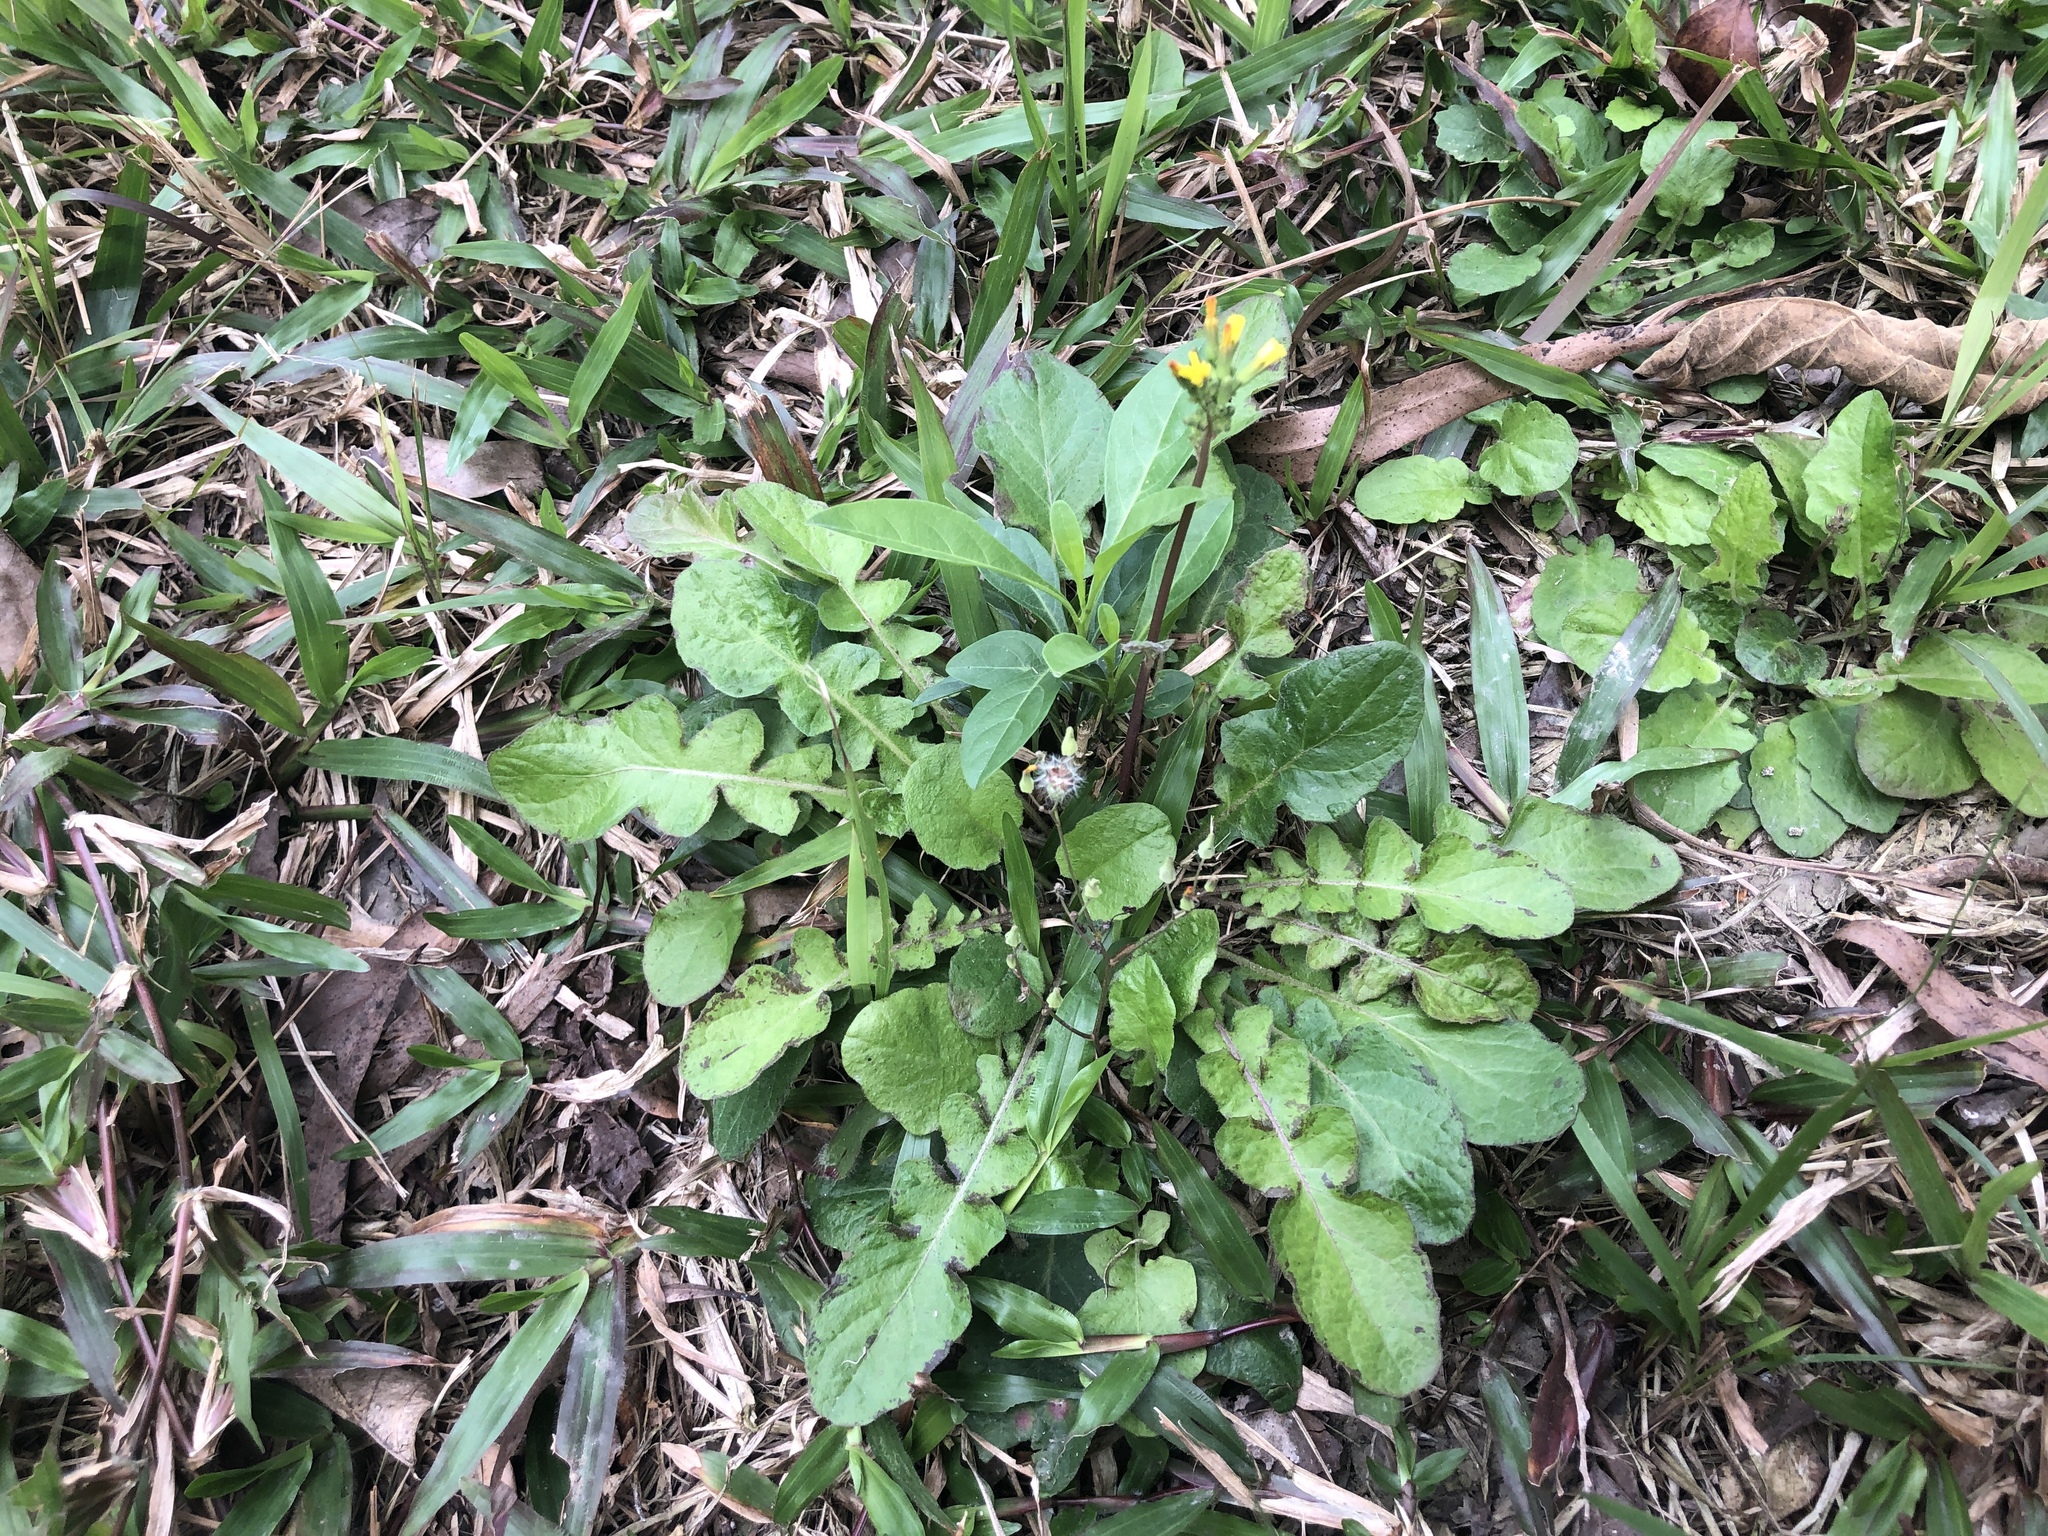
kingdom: Plantae
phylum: Tracheophyta
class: Magnoliopsida
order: Asterales
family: Asteraceae
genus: Youngia
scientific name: Youngia japonica
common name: Oriental false hawksbeard
